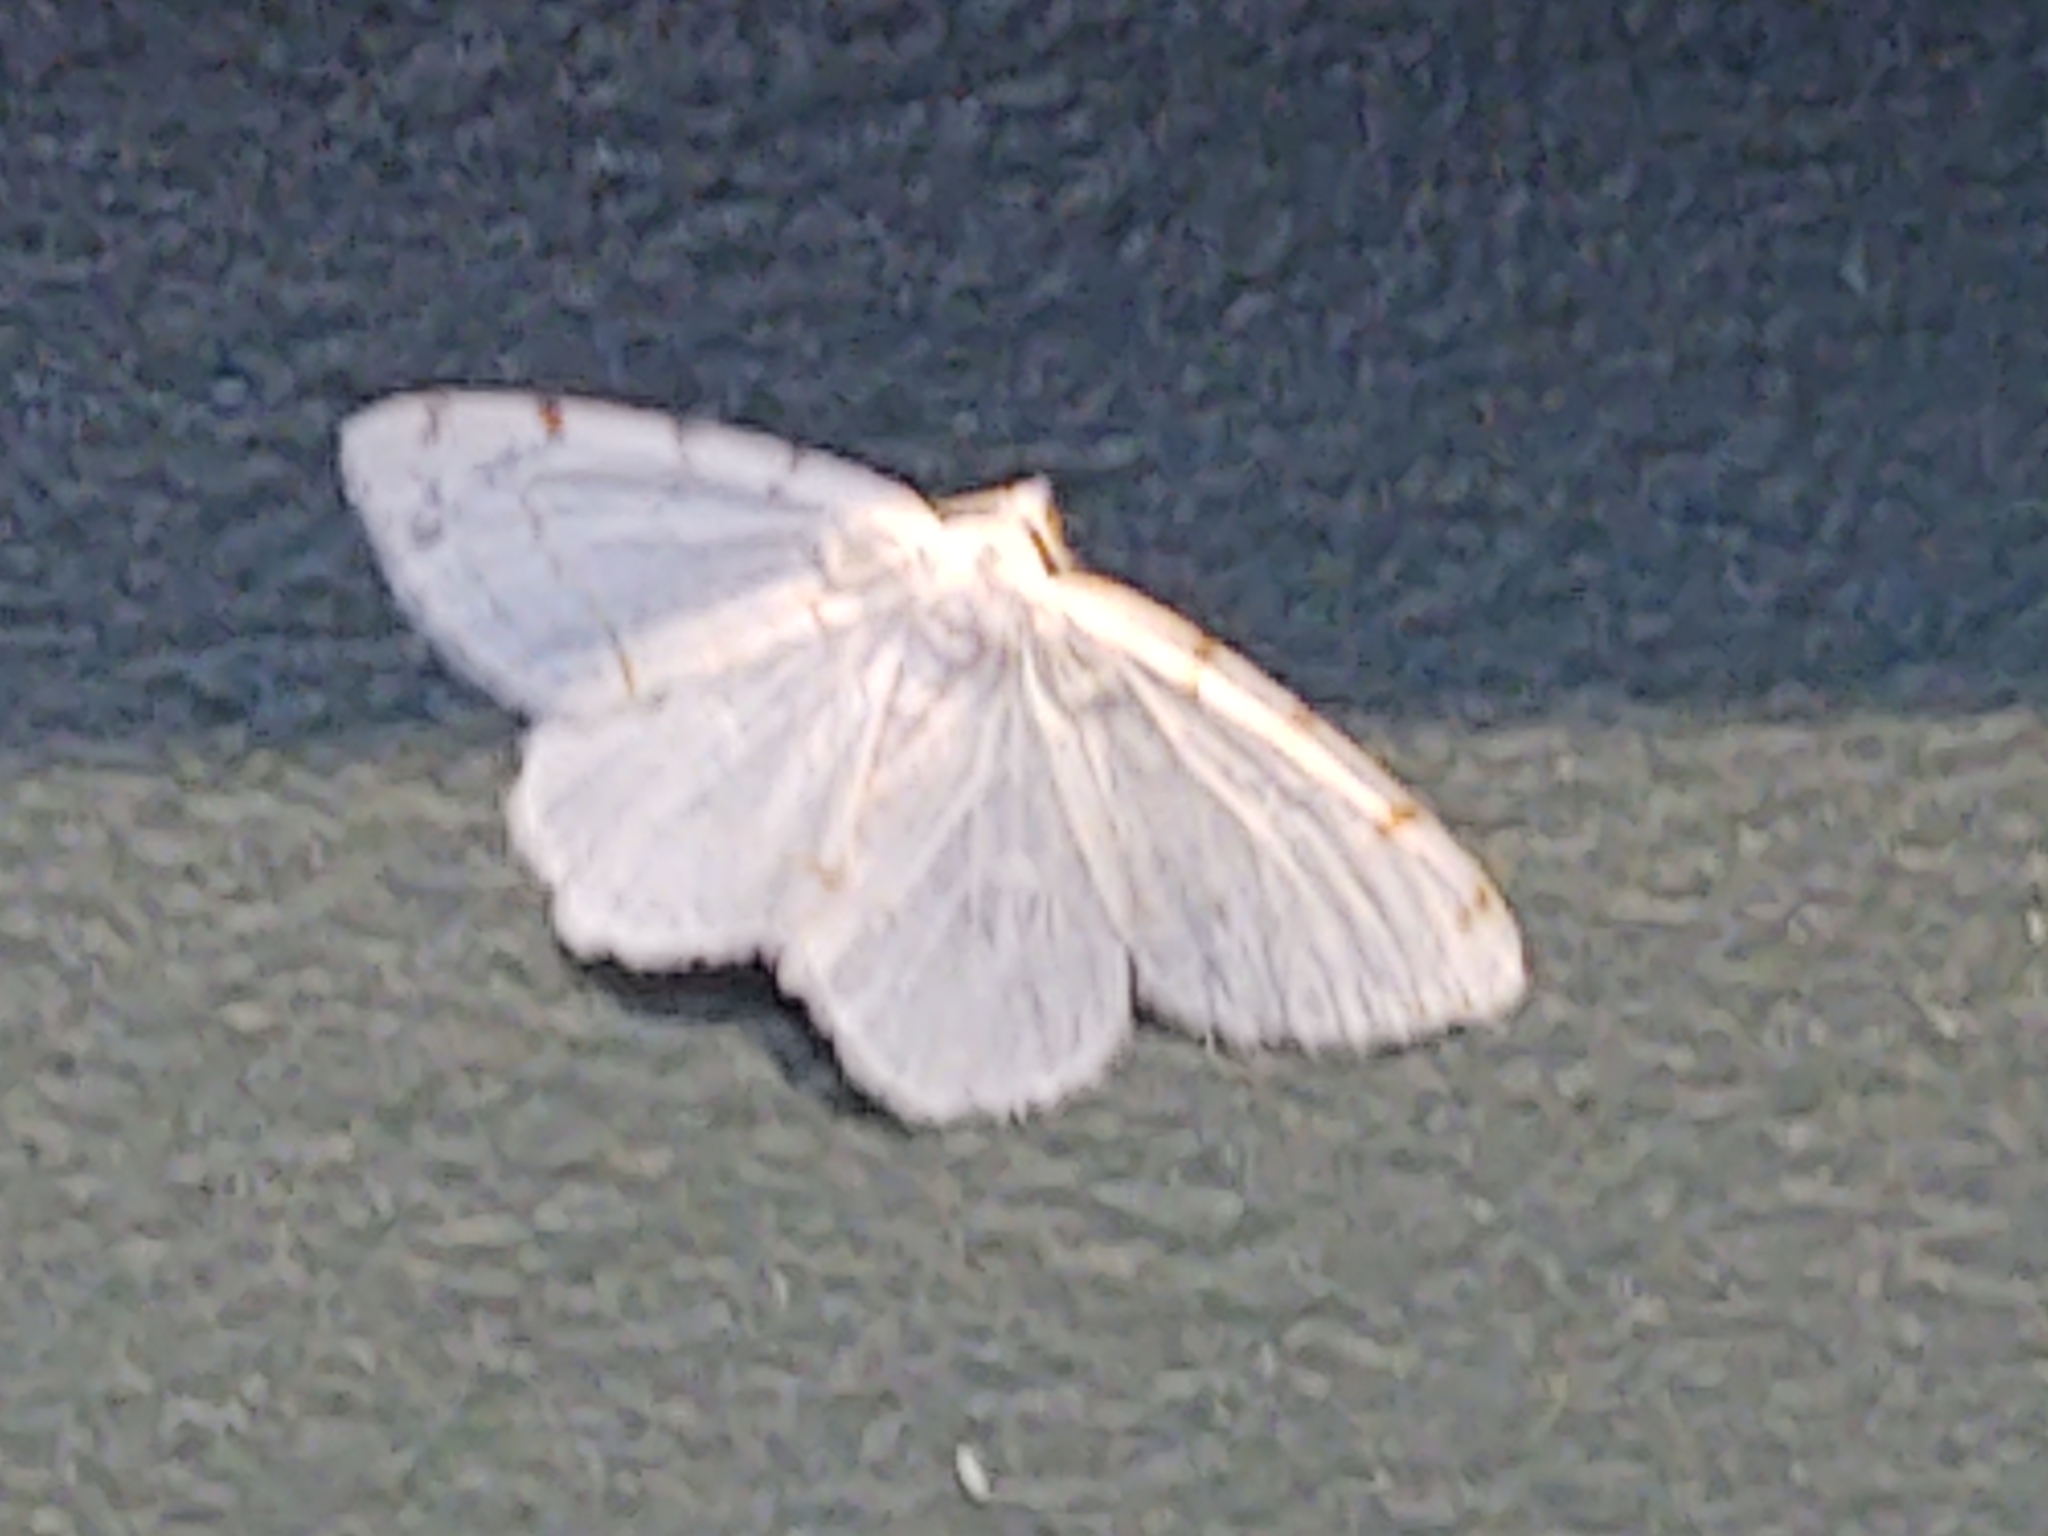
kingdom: Animalia
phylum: Arthropoda
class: Insecta
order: Lepidoptera
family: Geometridae
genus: Macaria
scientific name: Macaria pustularia
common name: Lesser maple spanworm moth
